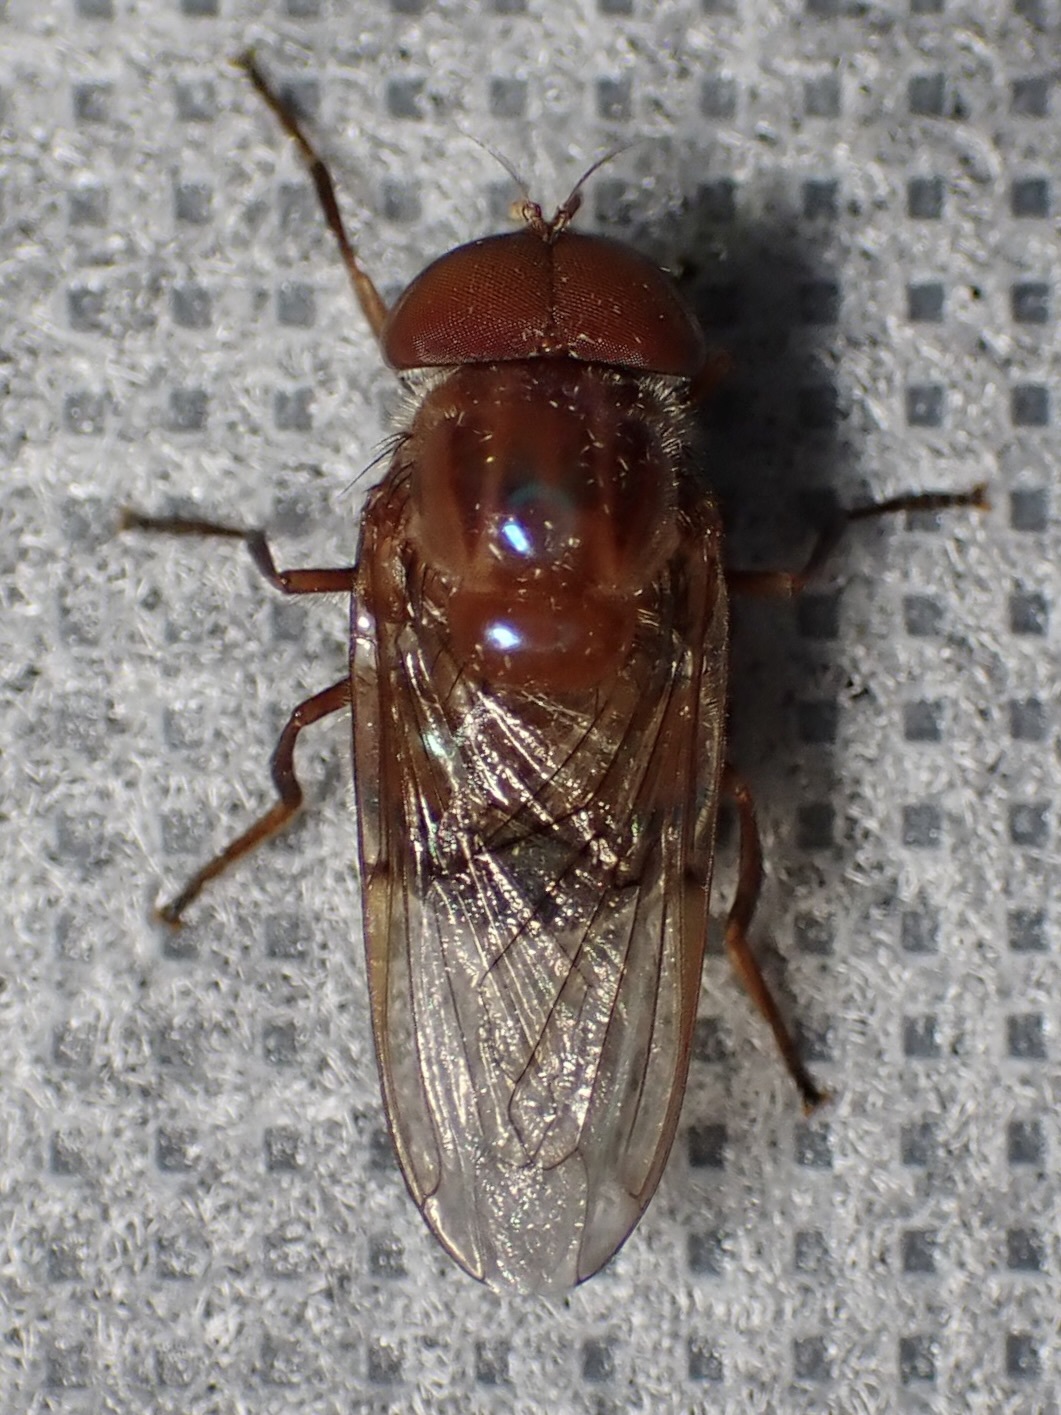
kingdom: Animalia
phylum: Arthropoda
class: Insecta
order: Diptera
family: Syrphidae
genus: Copestylum
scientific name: Copestylum opalescens
